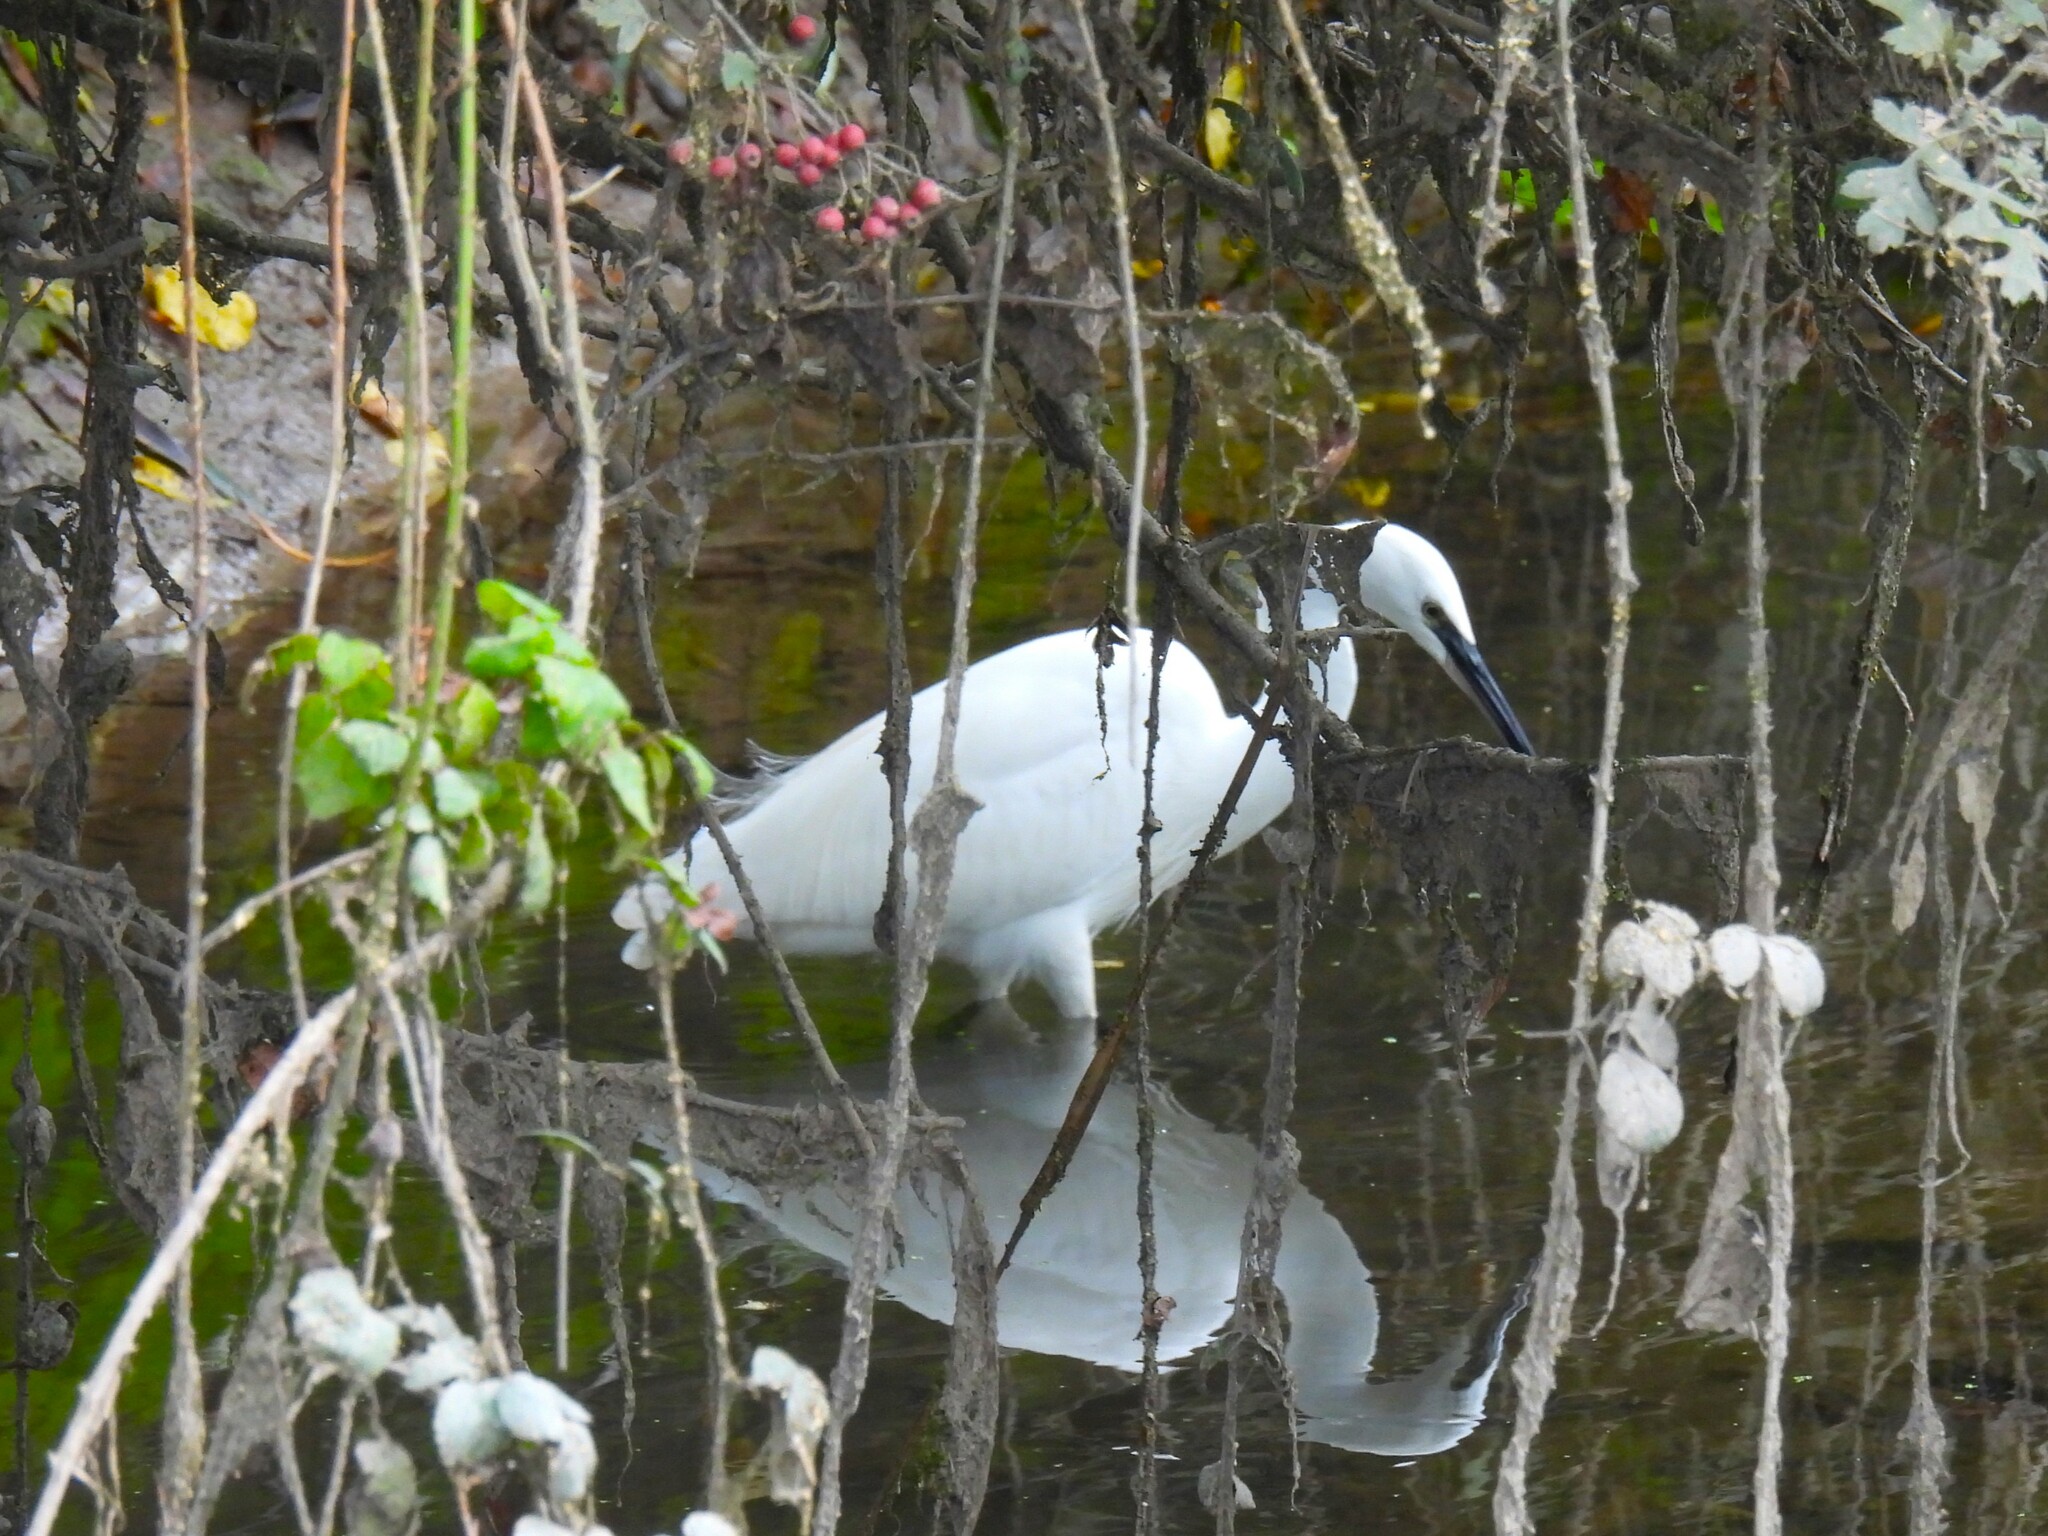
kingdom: Animalia
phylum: Chordata
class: Aves
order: Pelecaniformes
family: Ardeidae
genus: Egretta
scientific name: Egretta garzetta
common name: Little egret
